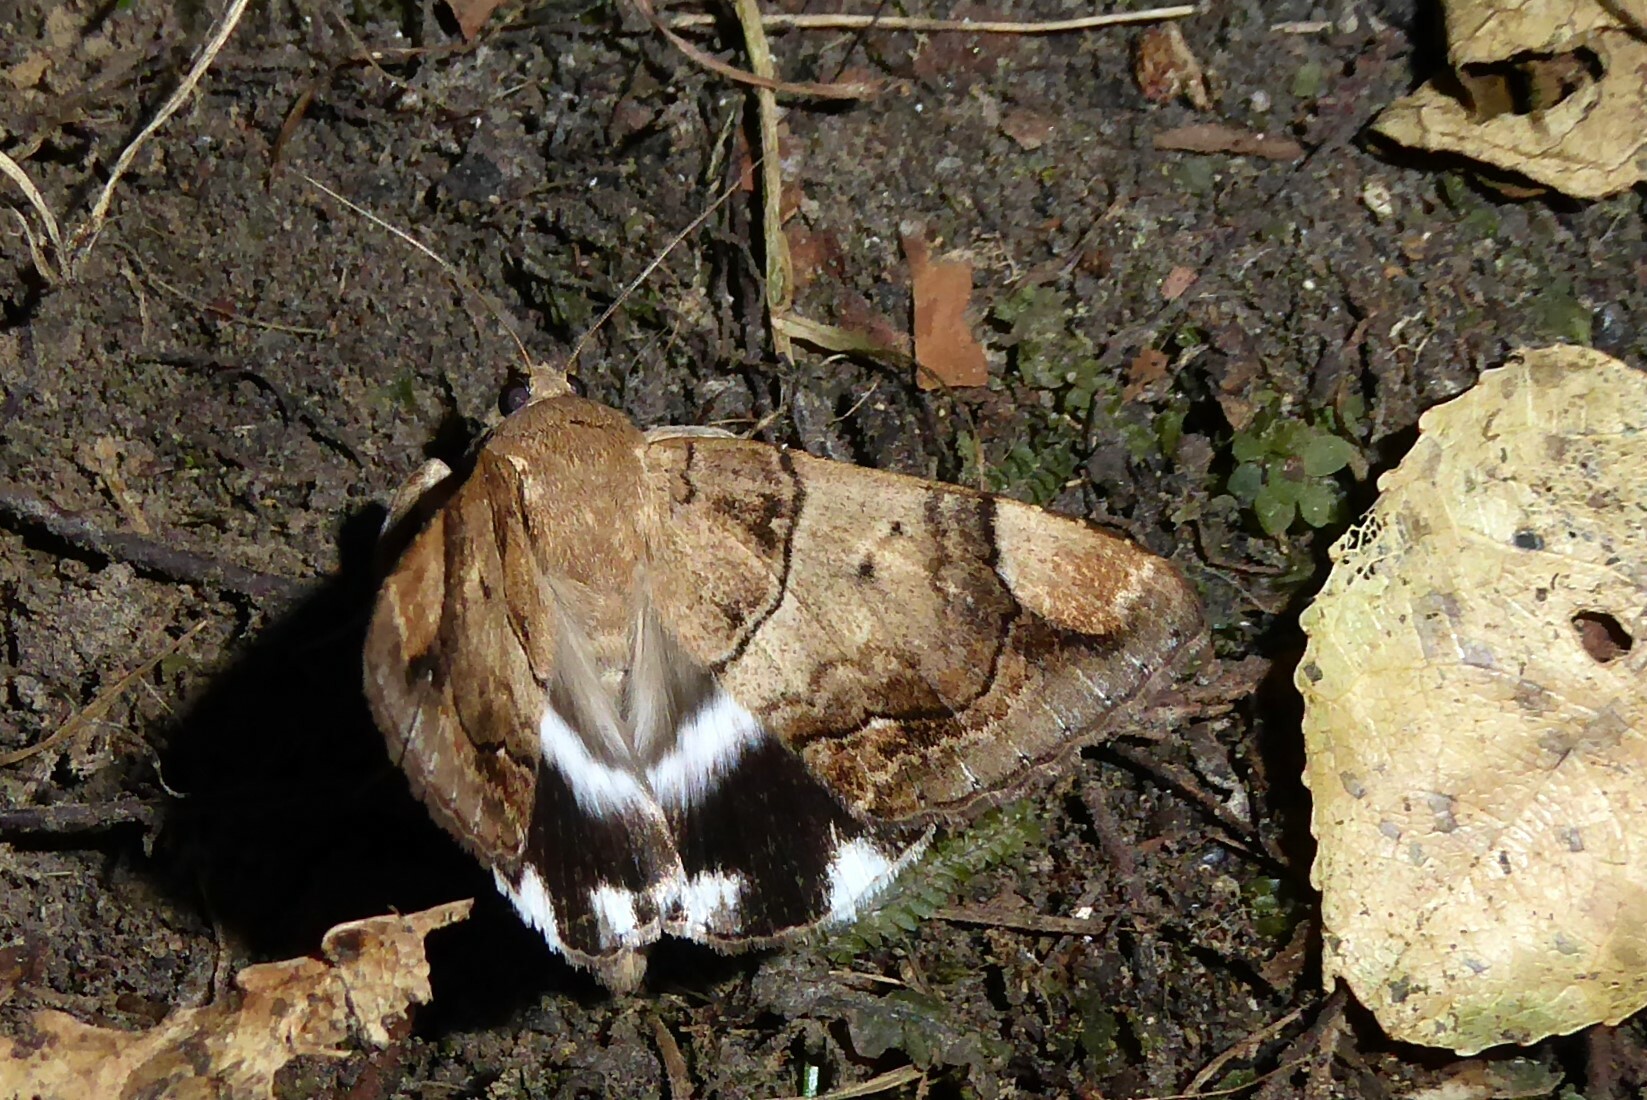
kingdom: Animalia
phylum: Arthropoda
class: Insecta
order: Lepidoptera
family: Erebidae
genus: Achaea
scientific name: Achaea janata
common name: Croton caterpillar
